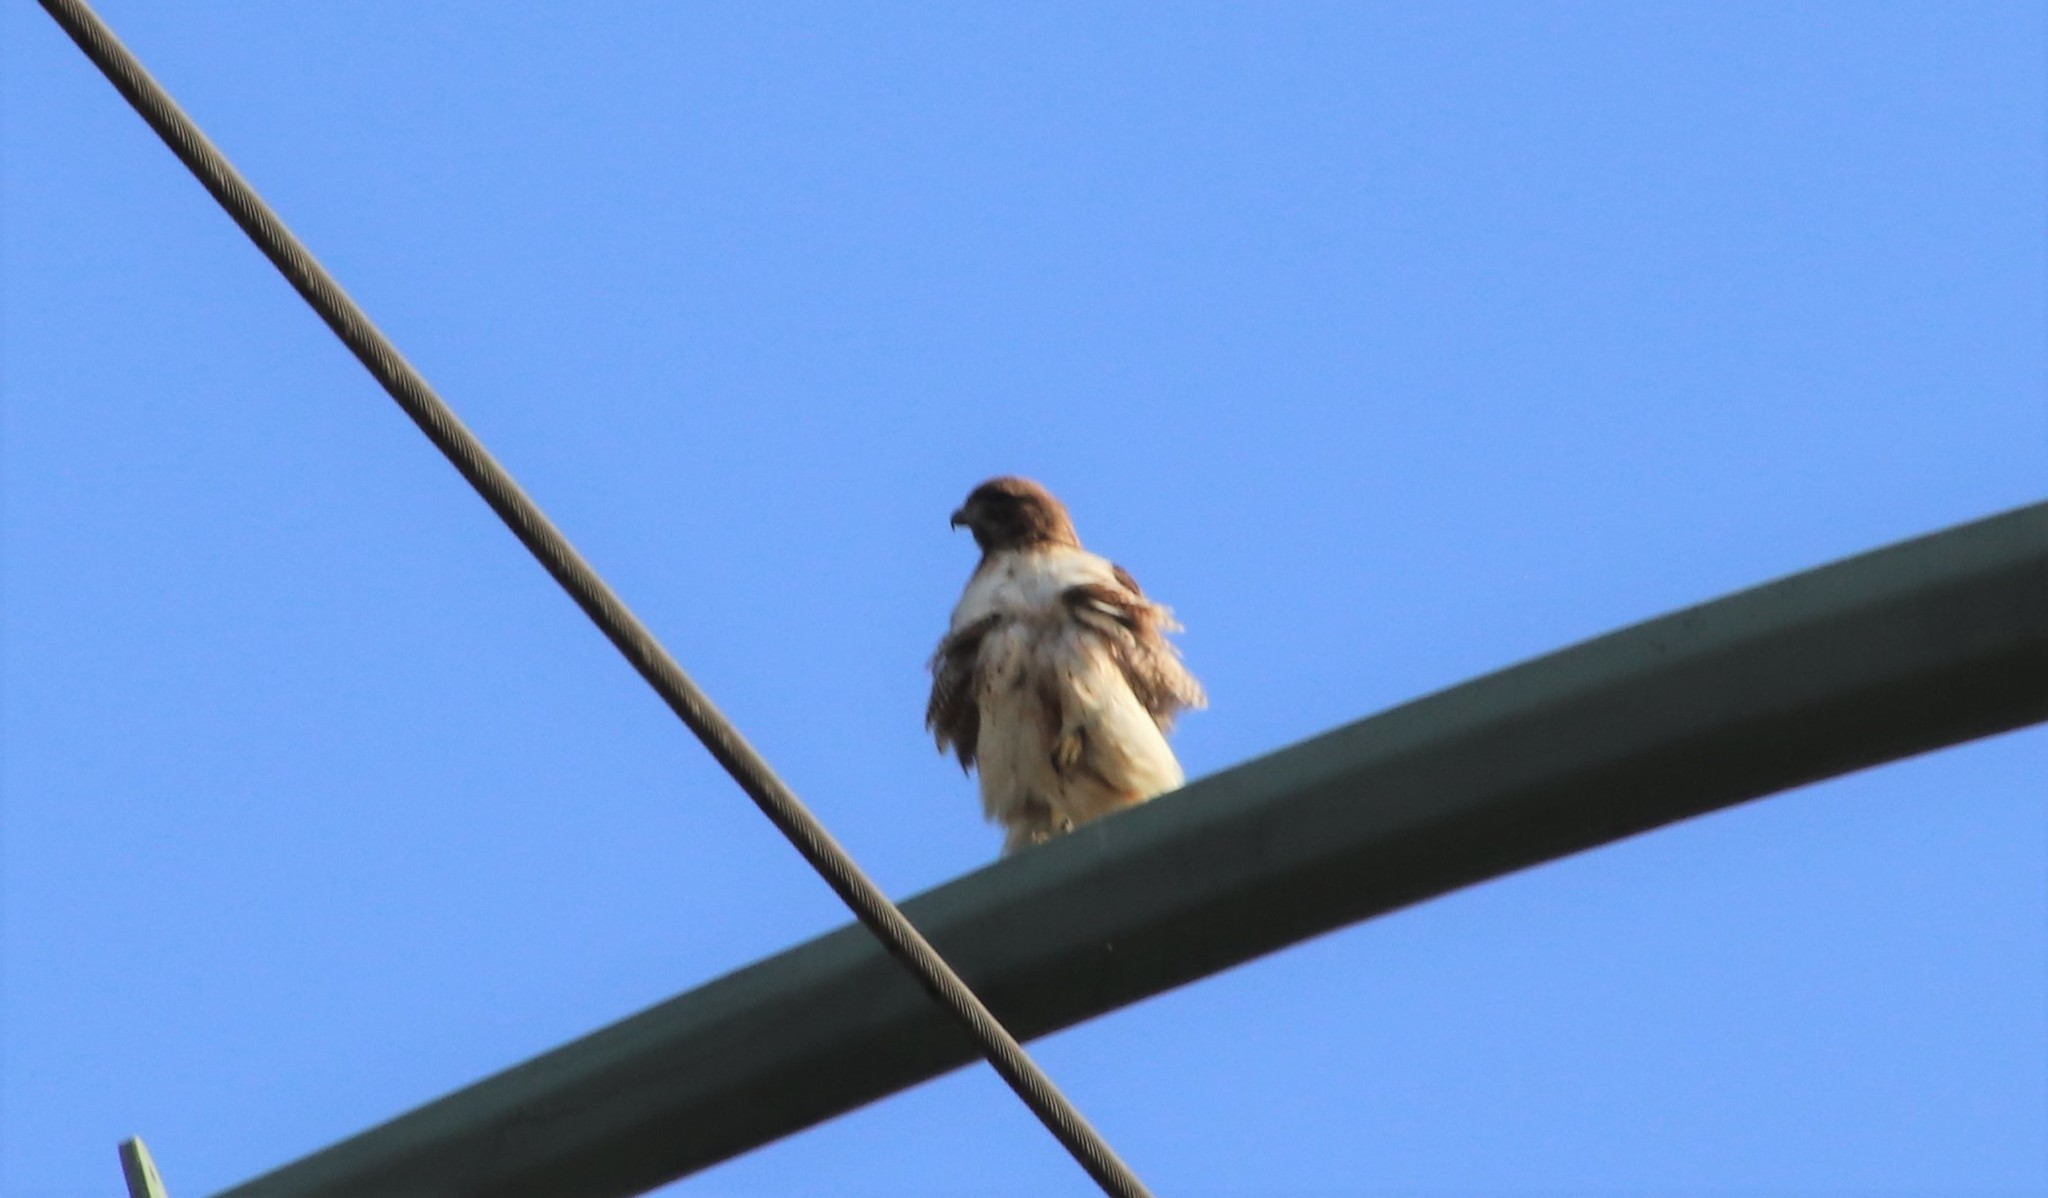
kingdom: Animalia
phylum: Chordata
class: Aves
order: Accipitriformes
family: Accipitridae
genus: Buteo
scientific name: Buteo jamaicensis
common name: Red-tailed hawk
